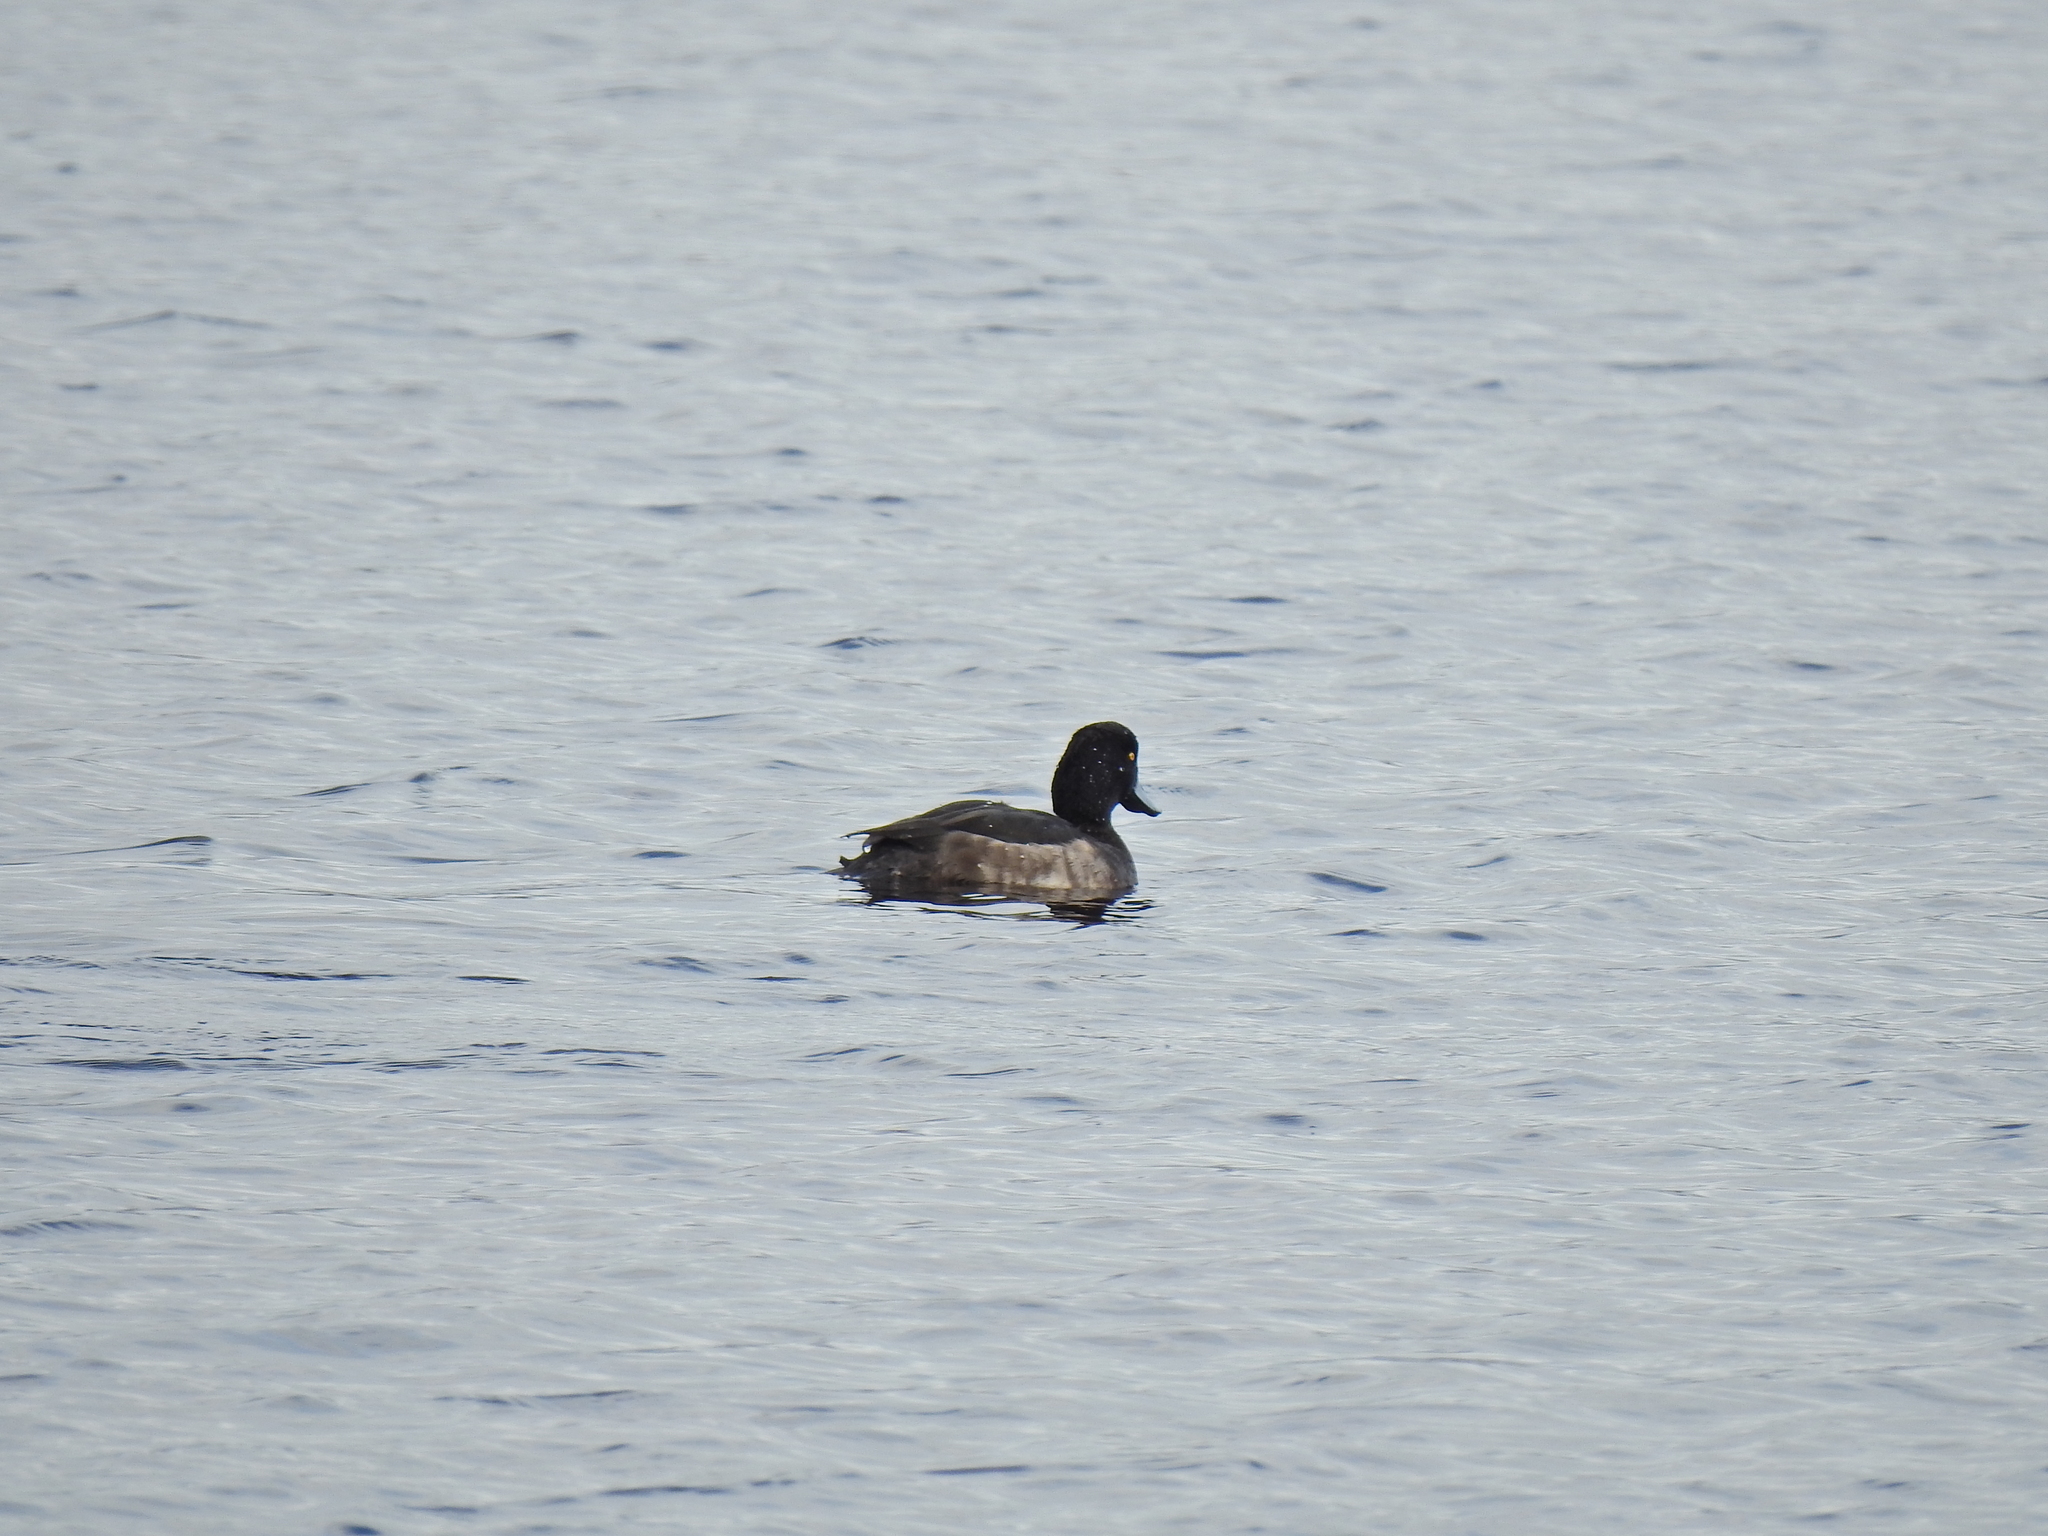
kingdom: Animalia
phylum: Chordata
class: Aves
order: Anseriformes
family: Anatidae
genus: Aythya
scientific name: Aythya fuligula
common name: Tufted duck
